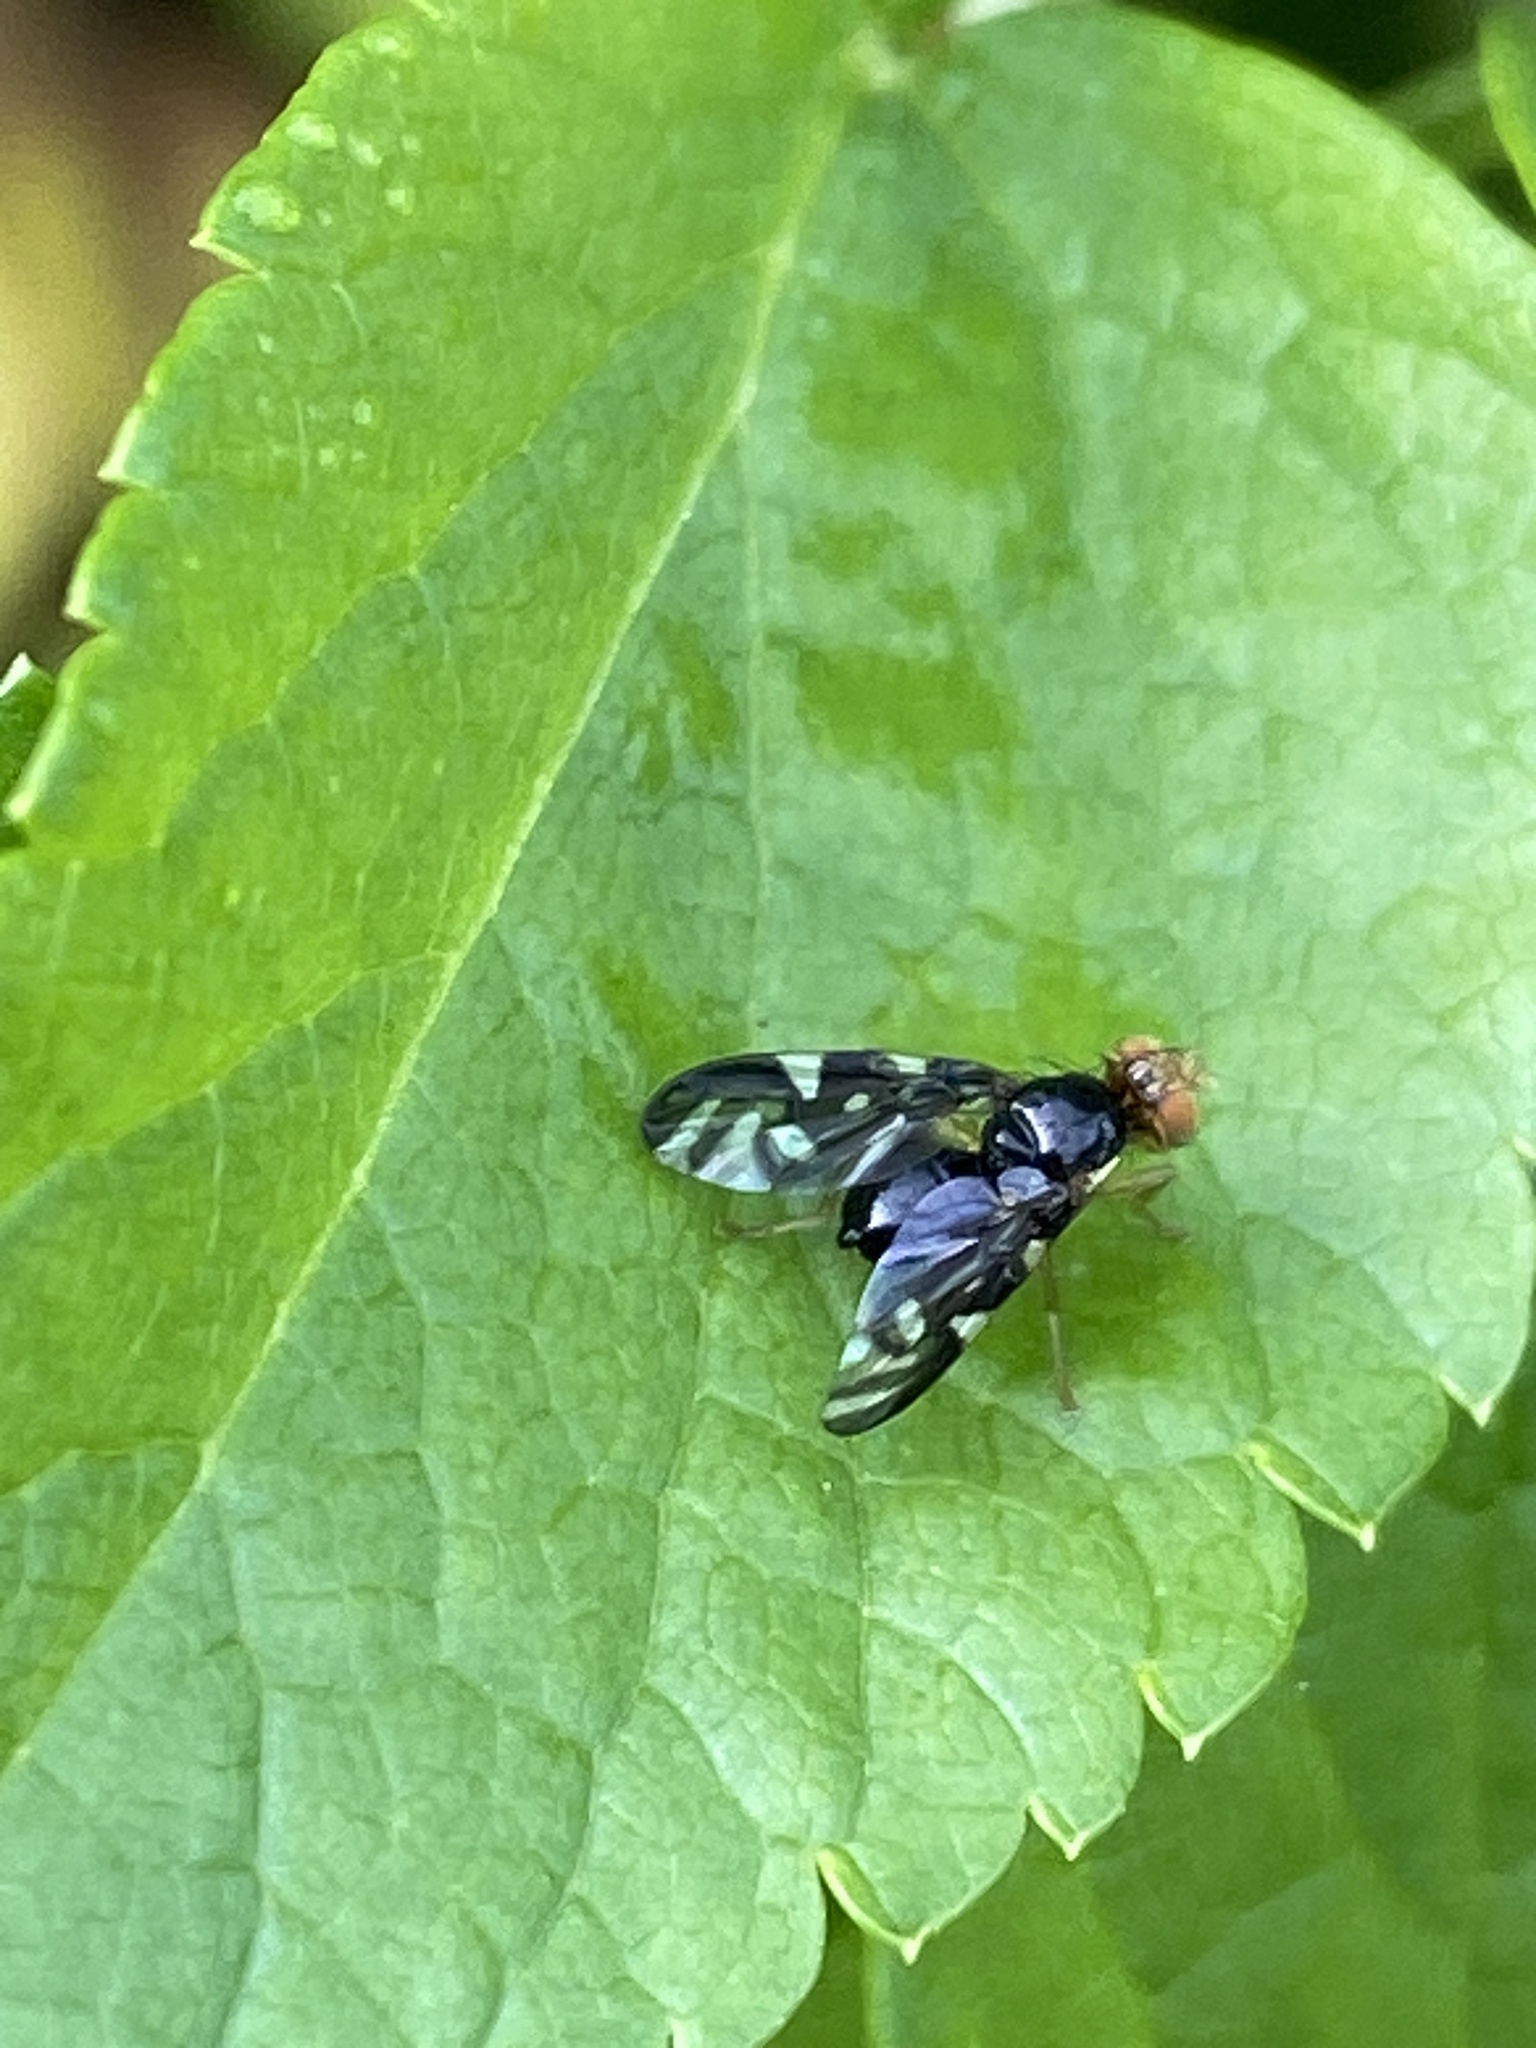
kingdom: Animalia
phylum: Arthropoda
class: Insecta
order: Diptera
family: Tephritidae
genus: Euleia
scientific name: Euleia heraclei
